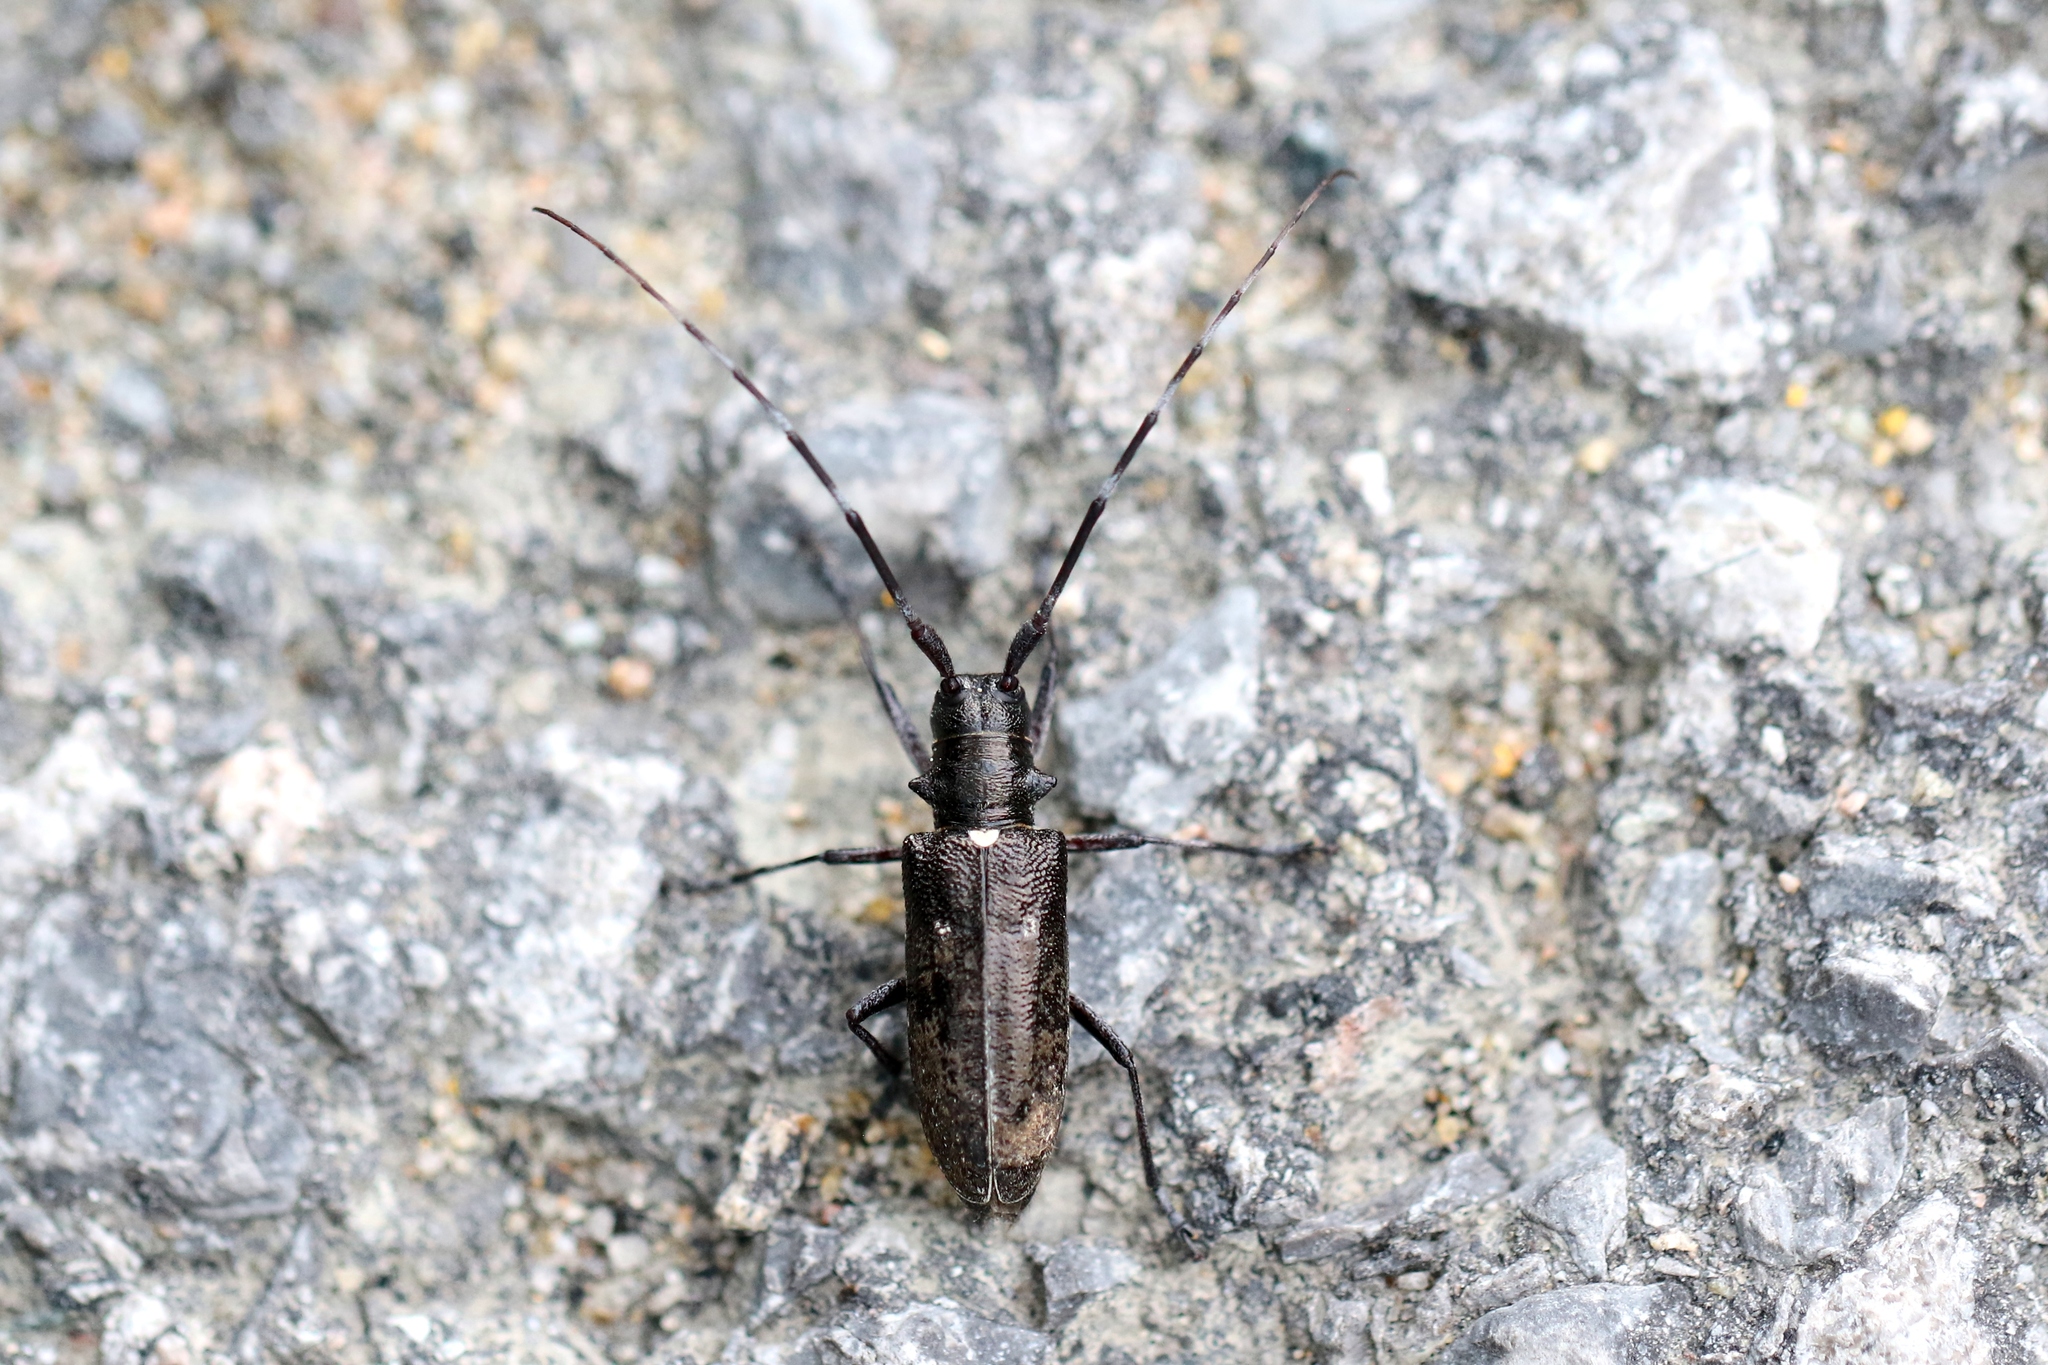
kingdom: Animalia
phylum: Arthropoda
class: Insecta
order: Coleoptera
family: Cerambycidae
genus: Monochamus
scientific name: Monochamus scutellatus
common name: White-spotted sawyer beetle
